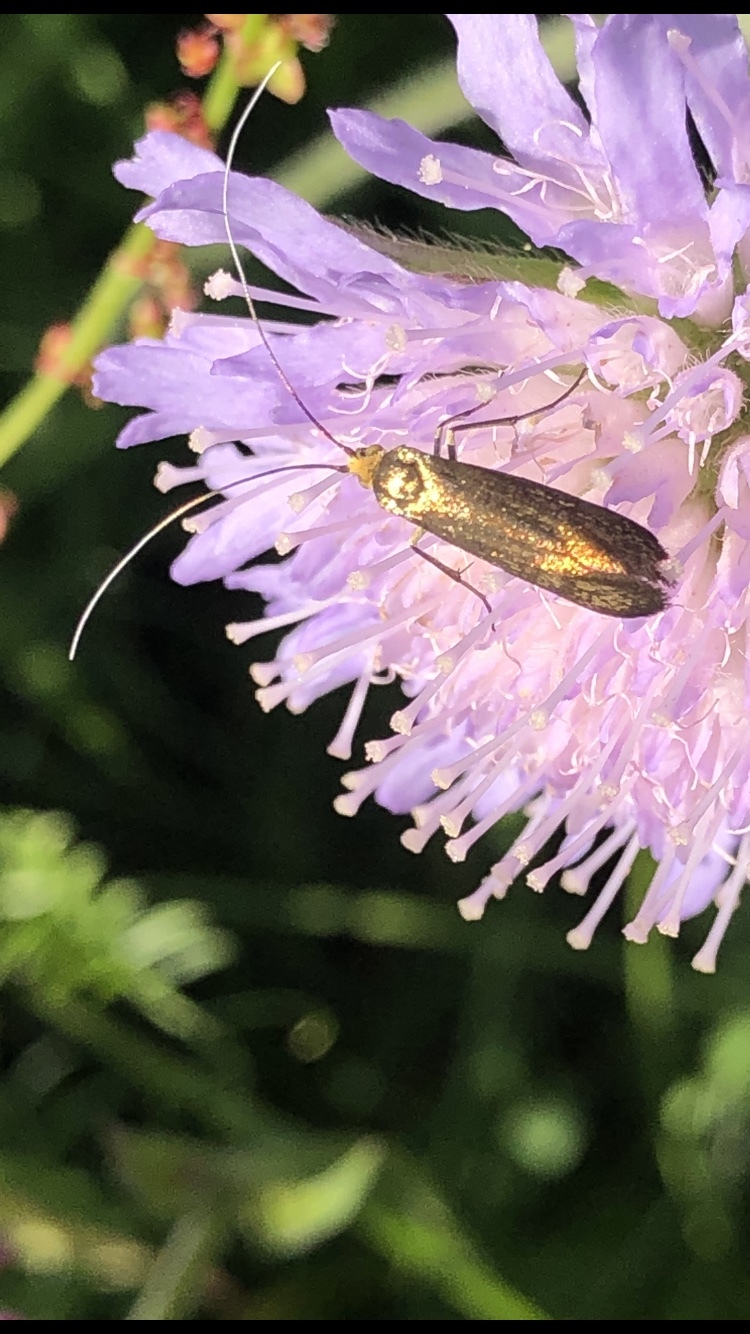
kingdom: Animalia
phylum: Arthropoda
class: Insecta
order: Lepidoptera
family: Adelidae
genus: Nemophora
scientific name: Nemophora metallica
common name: Brassy long-horn
